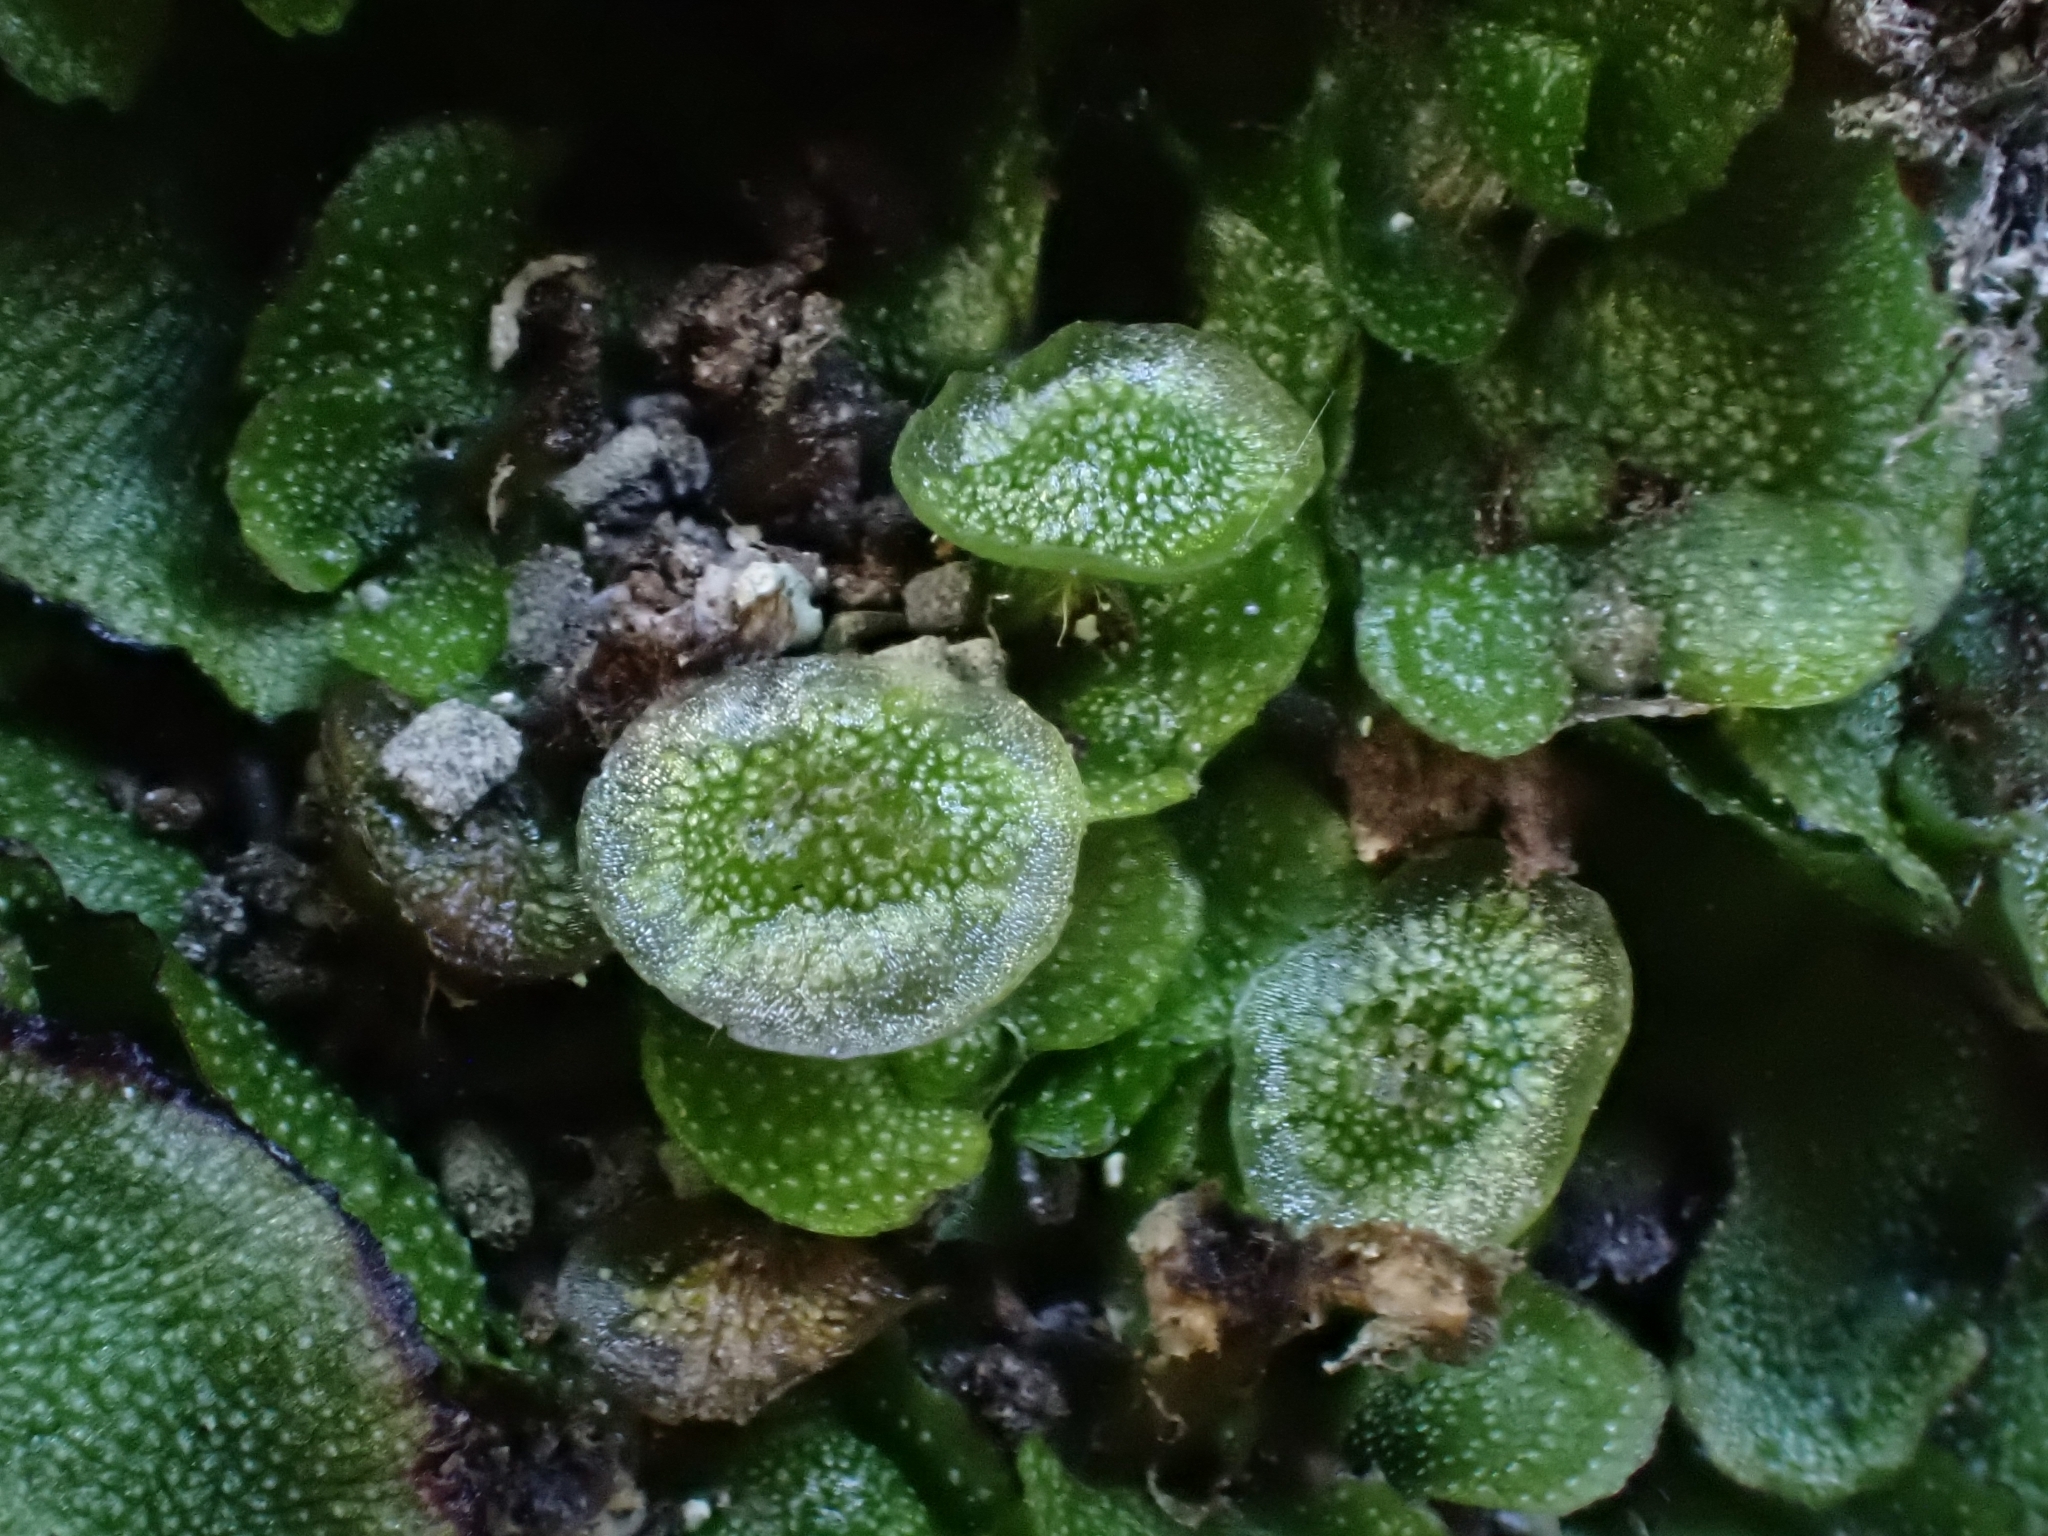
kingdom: Plantae
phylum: Marchantiophyta
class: Marchantiopsida
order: Marchantiales
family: Marchantiaceae
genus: Marchantia
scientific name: Marchantia quadrata
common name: Narrow mushroom-headed liverwort
